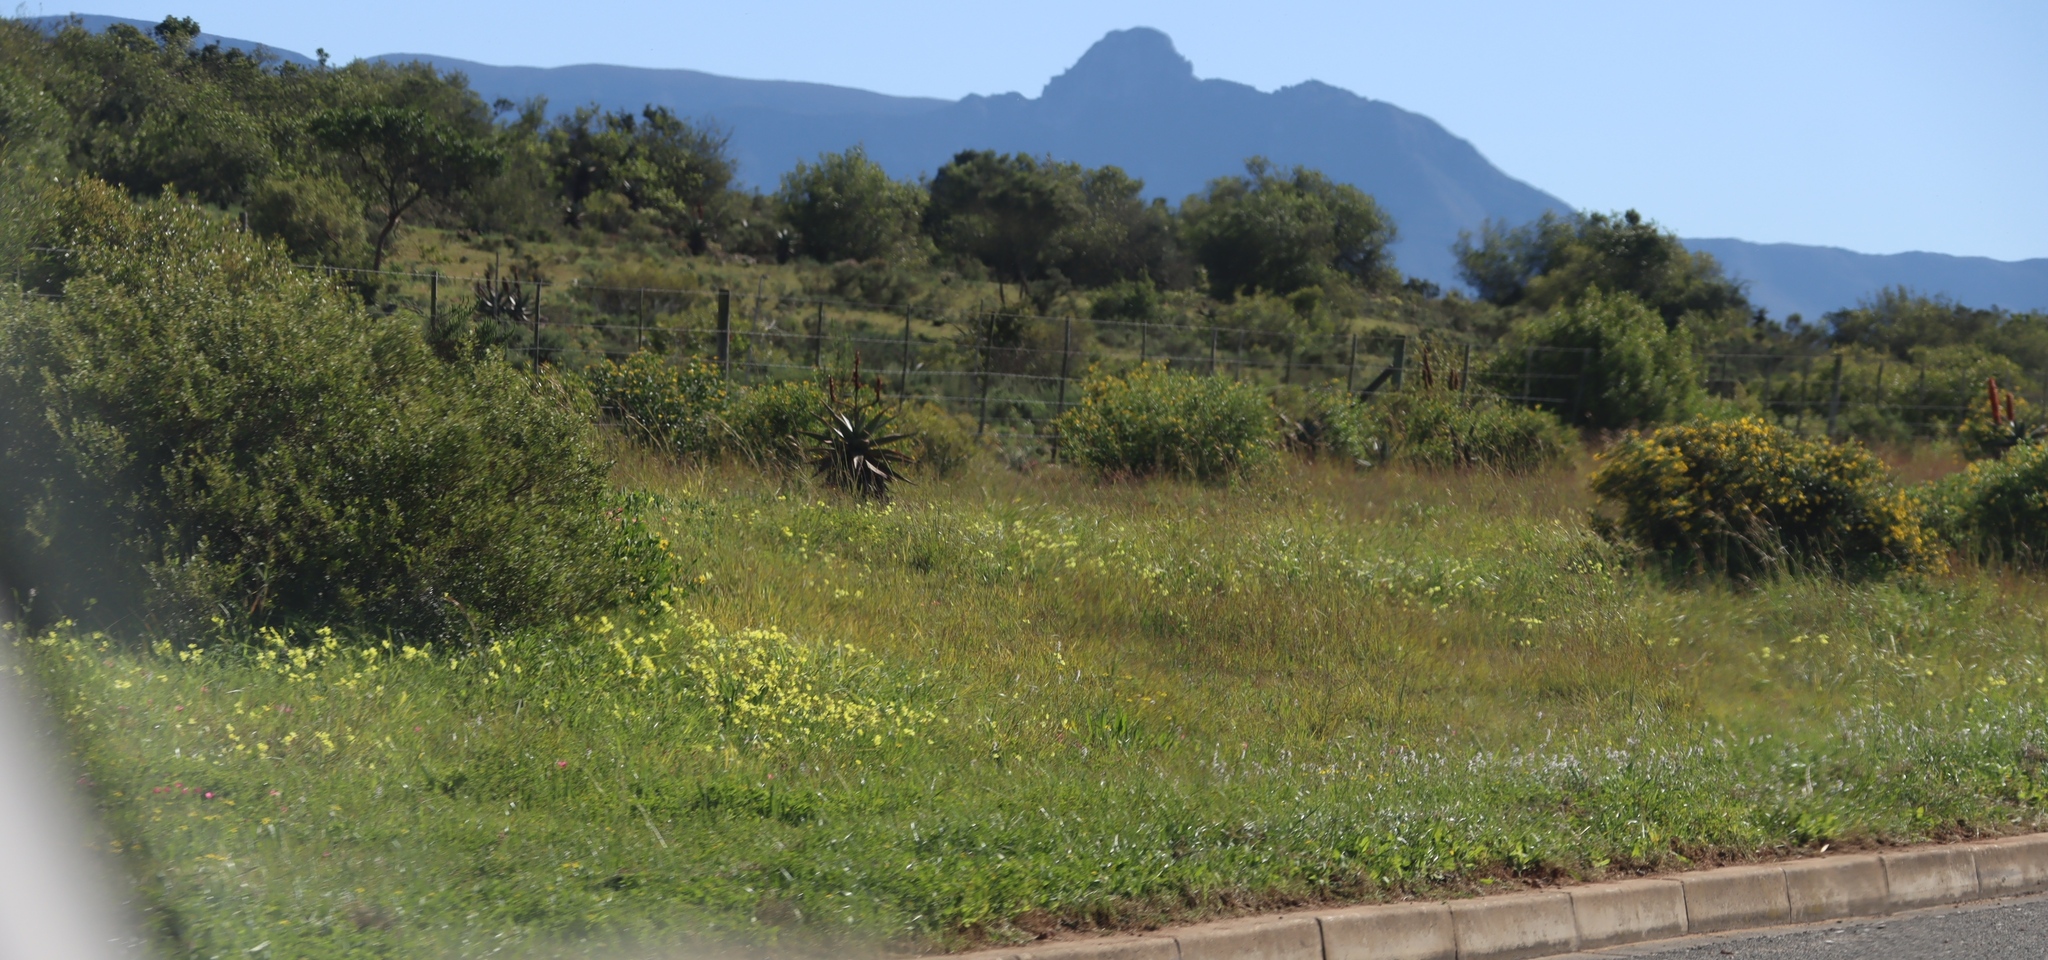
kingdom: Plantae
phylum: Tracheophyta
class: Magnoliopsida
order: Oxalidales
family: Oxalidaceae
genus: Oxalis
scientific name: Oxalis pes-caprae
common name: Bermuda-buttercup
